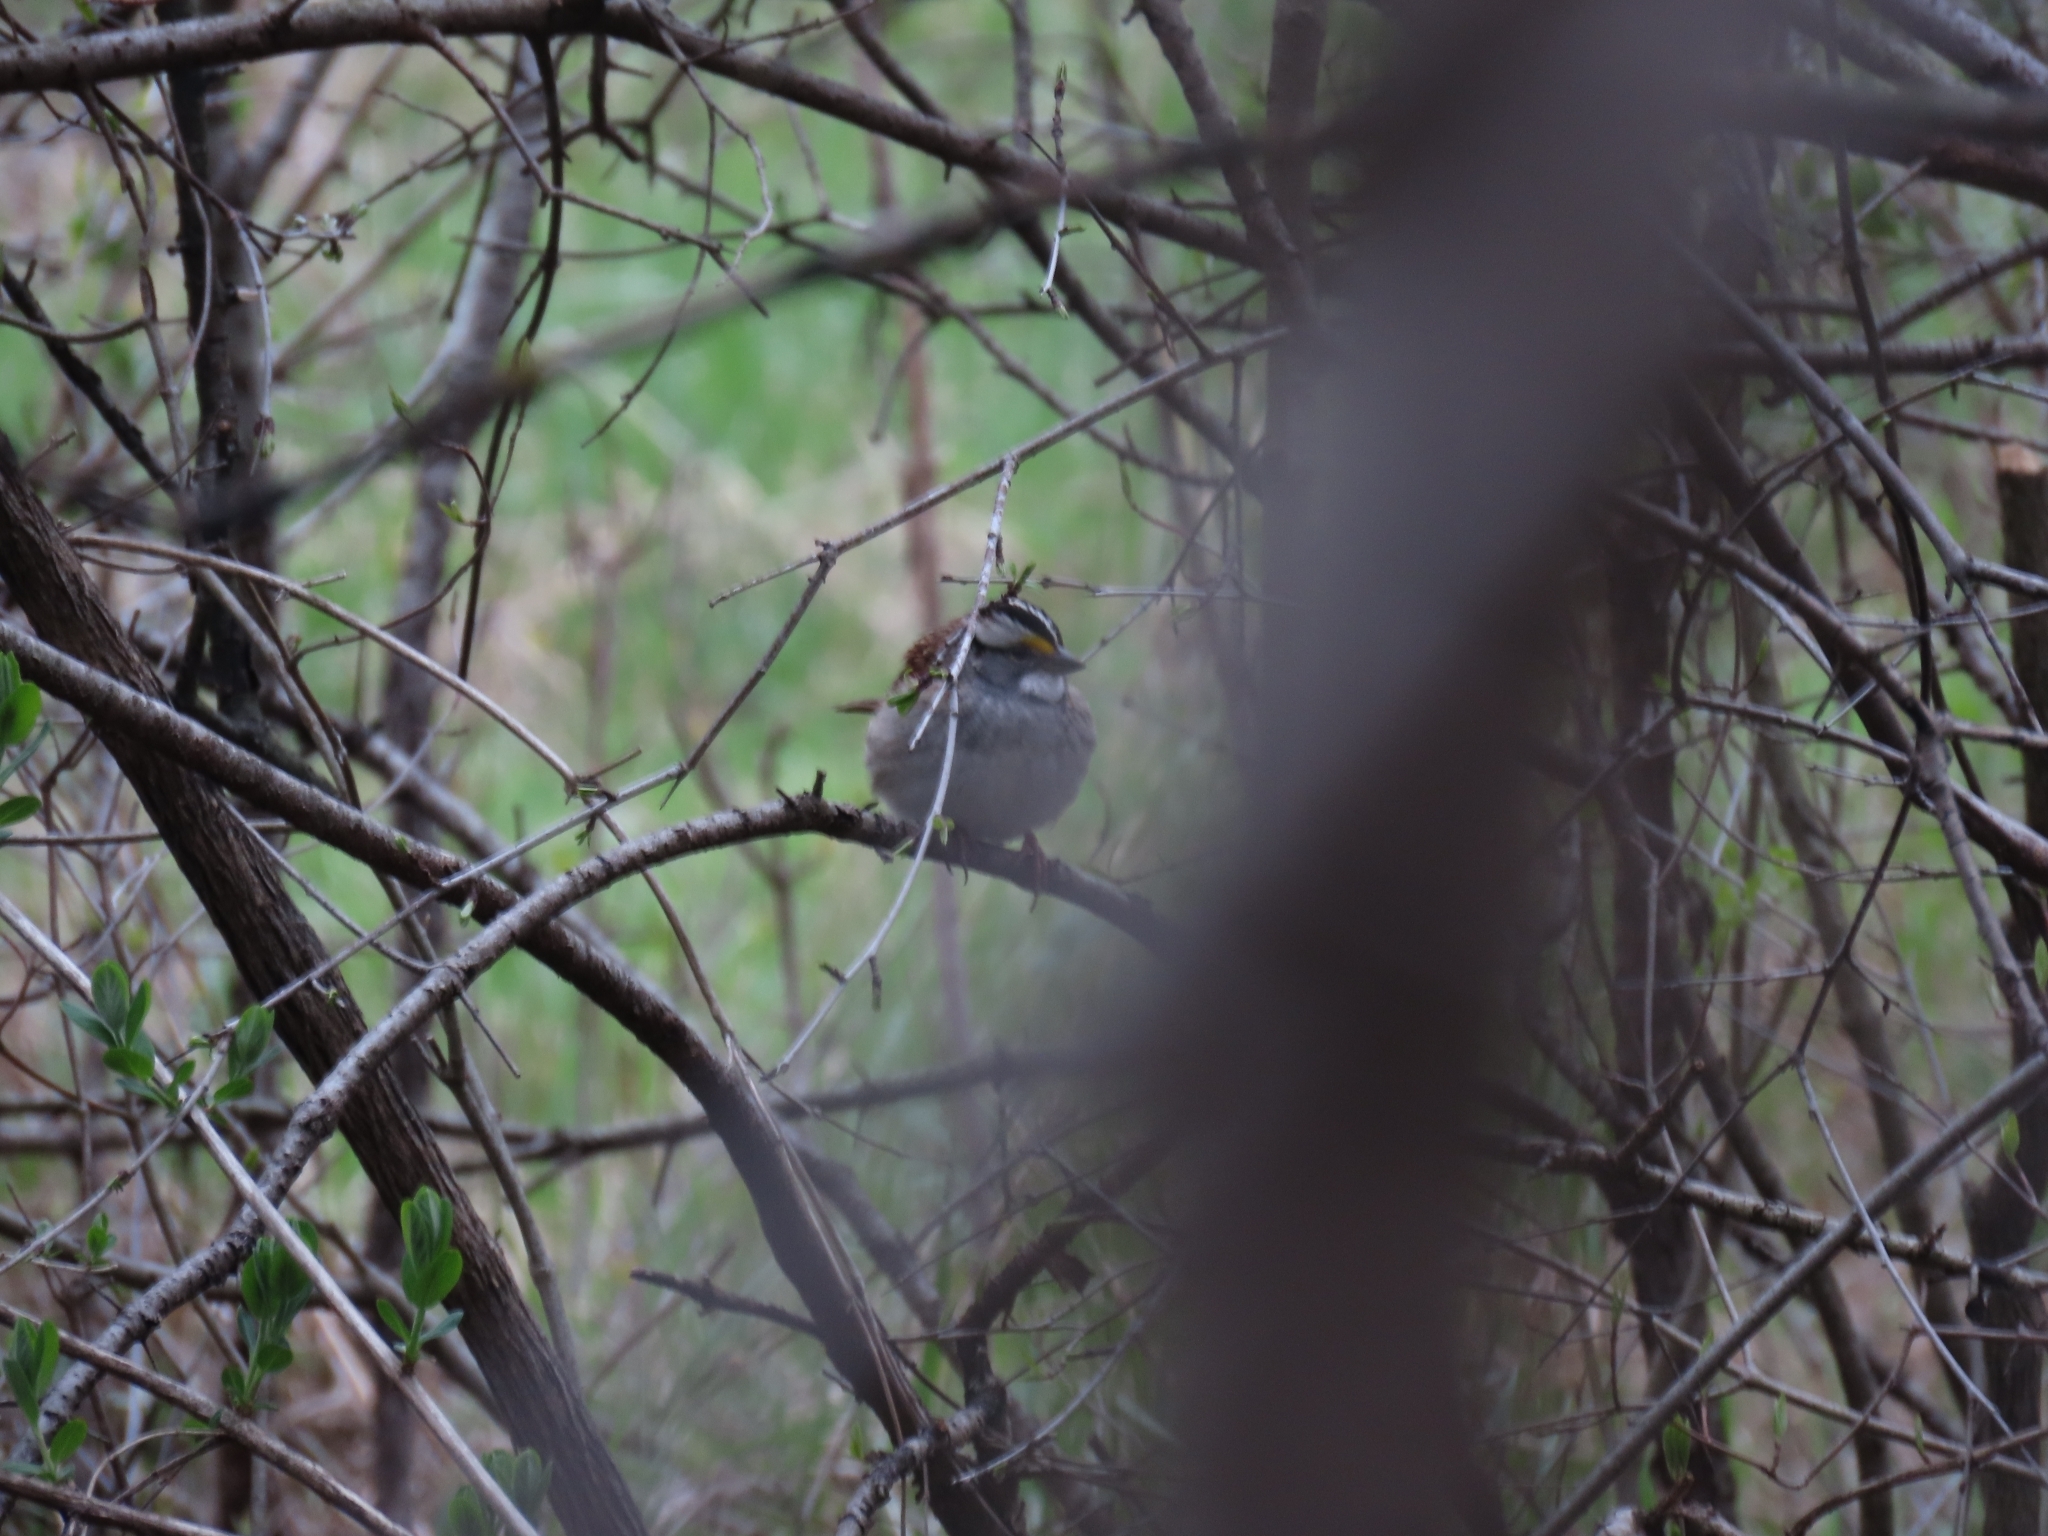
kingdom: Animalia
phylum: Chordata
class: Aves
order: Passeriformes
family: Passerellidae
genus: Zonotrichia
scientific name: Zonotrichia albicollis
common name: White-throated sparrow
